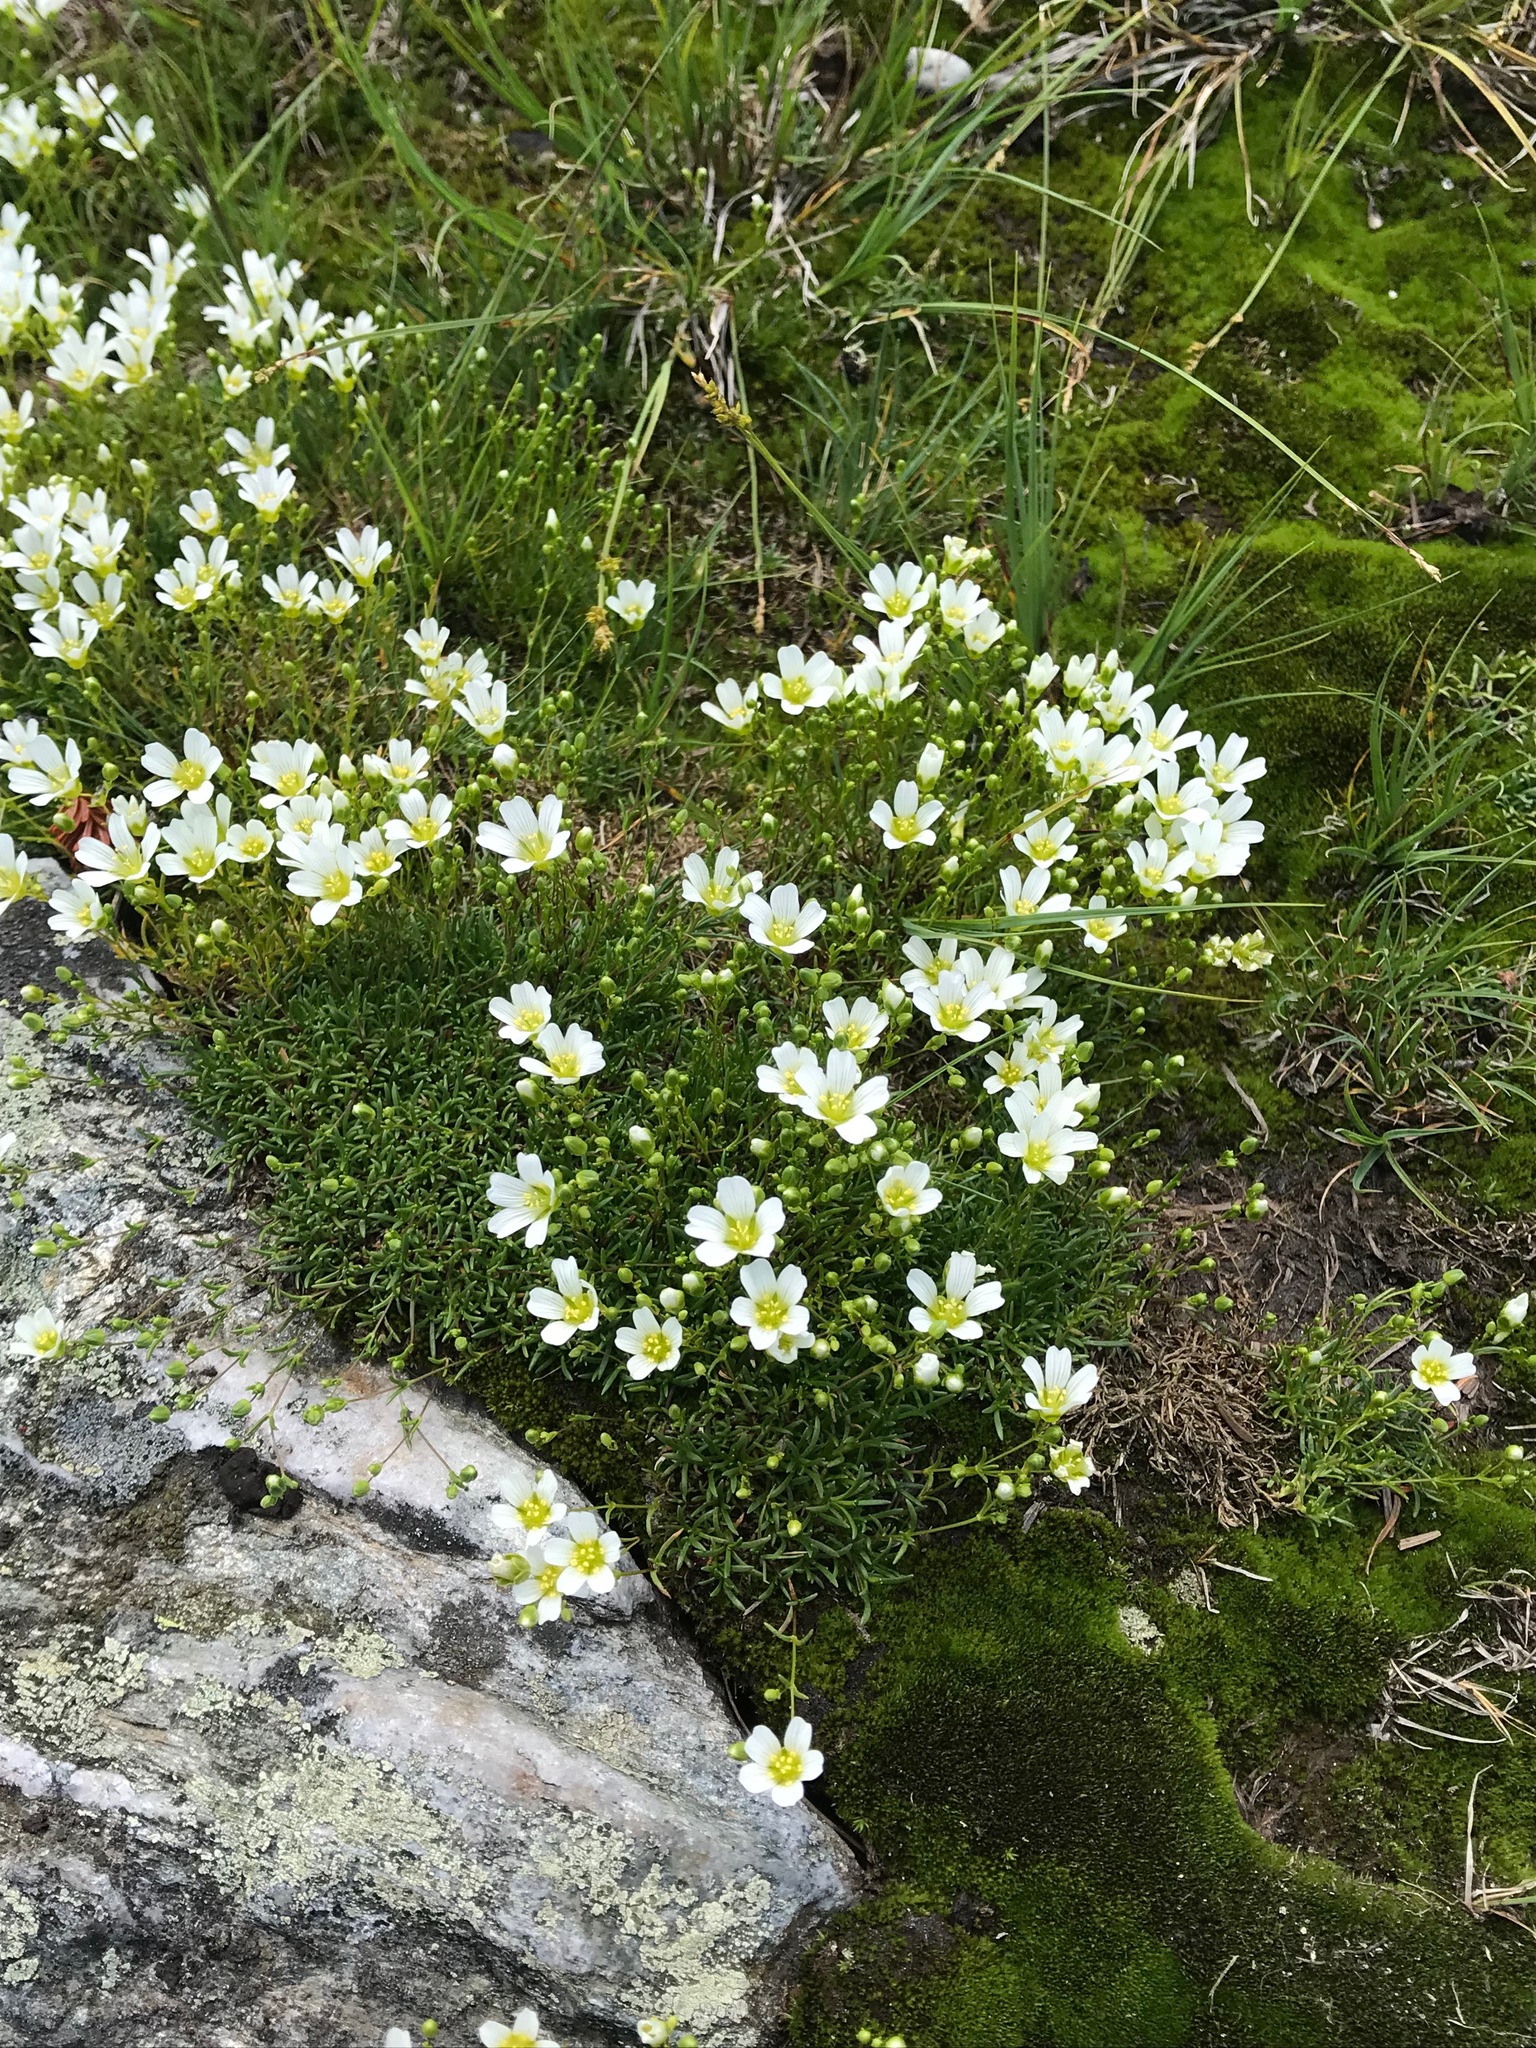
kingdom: Plantae
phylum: Tracheophyta
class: Magnoliopsida
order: Caryophyllales
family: Caryophyllaceae
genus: Geocarpon
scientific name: Geocarpon groenlandicum
